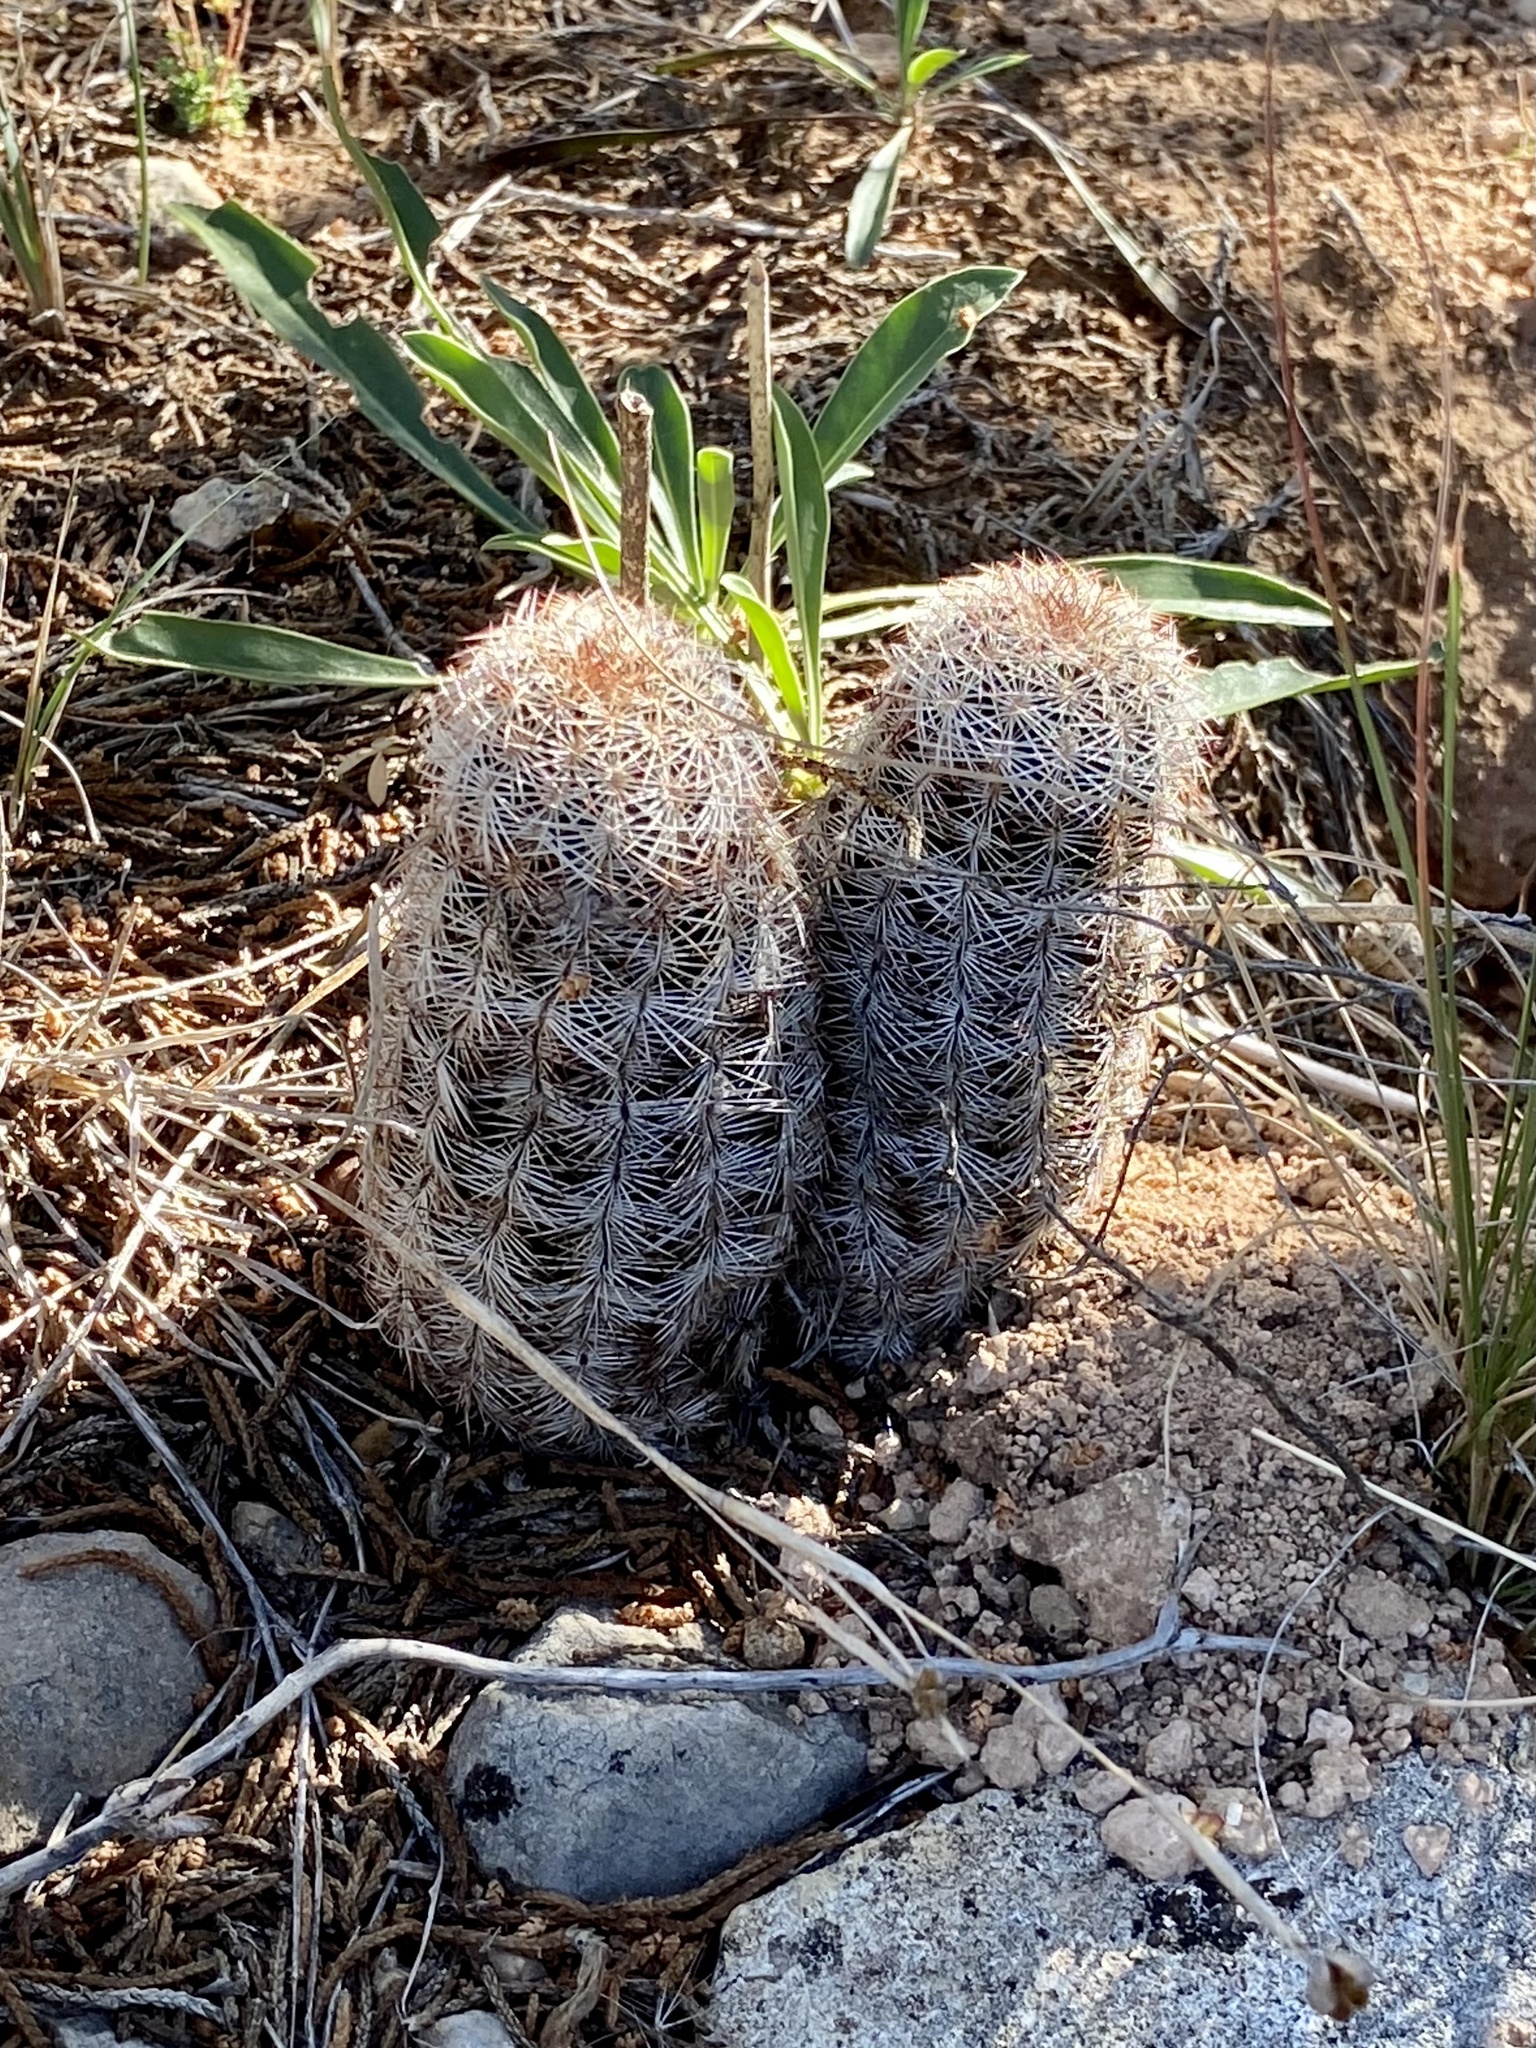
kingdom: Plantae
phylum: Tracheophyta
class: Magnoliopsida
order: Caryophyllales
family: Cactaceae
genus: Echinocereus
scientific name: Echinocereus reichenbachii
